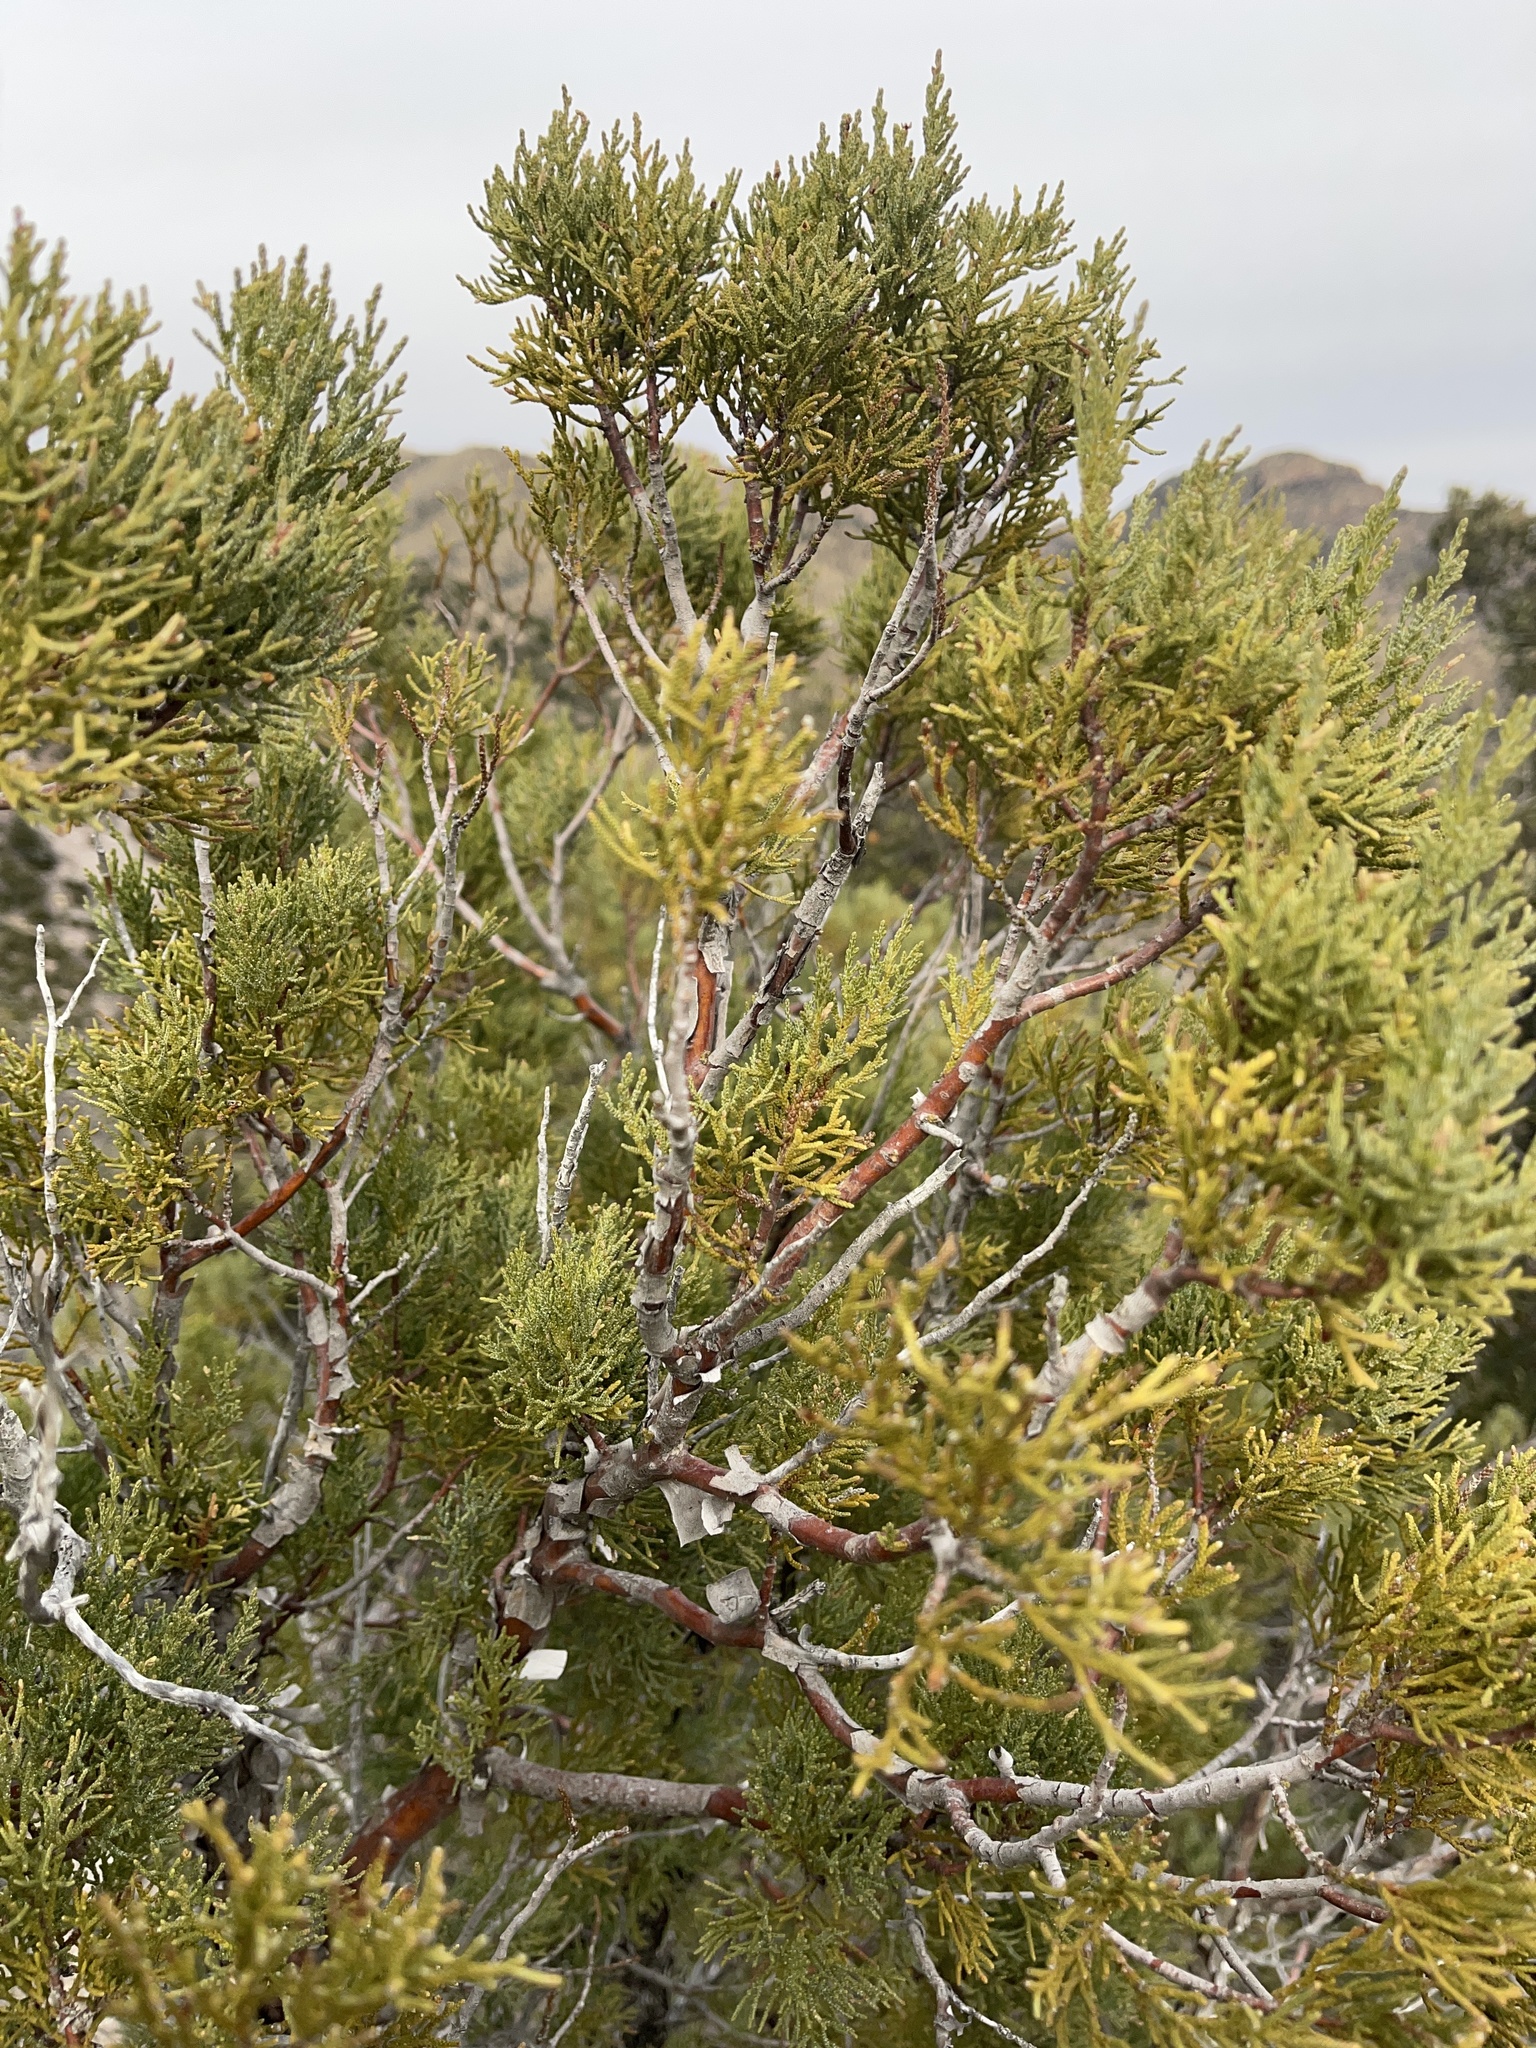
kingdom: Plantae
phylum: Tracheophyta
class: Pinopsida
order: Pinales
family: Cupressaceae
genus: Juniperus
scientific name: Juniperus deppeana
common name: Alligator juniper
